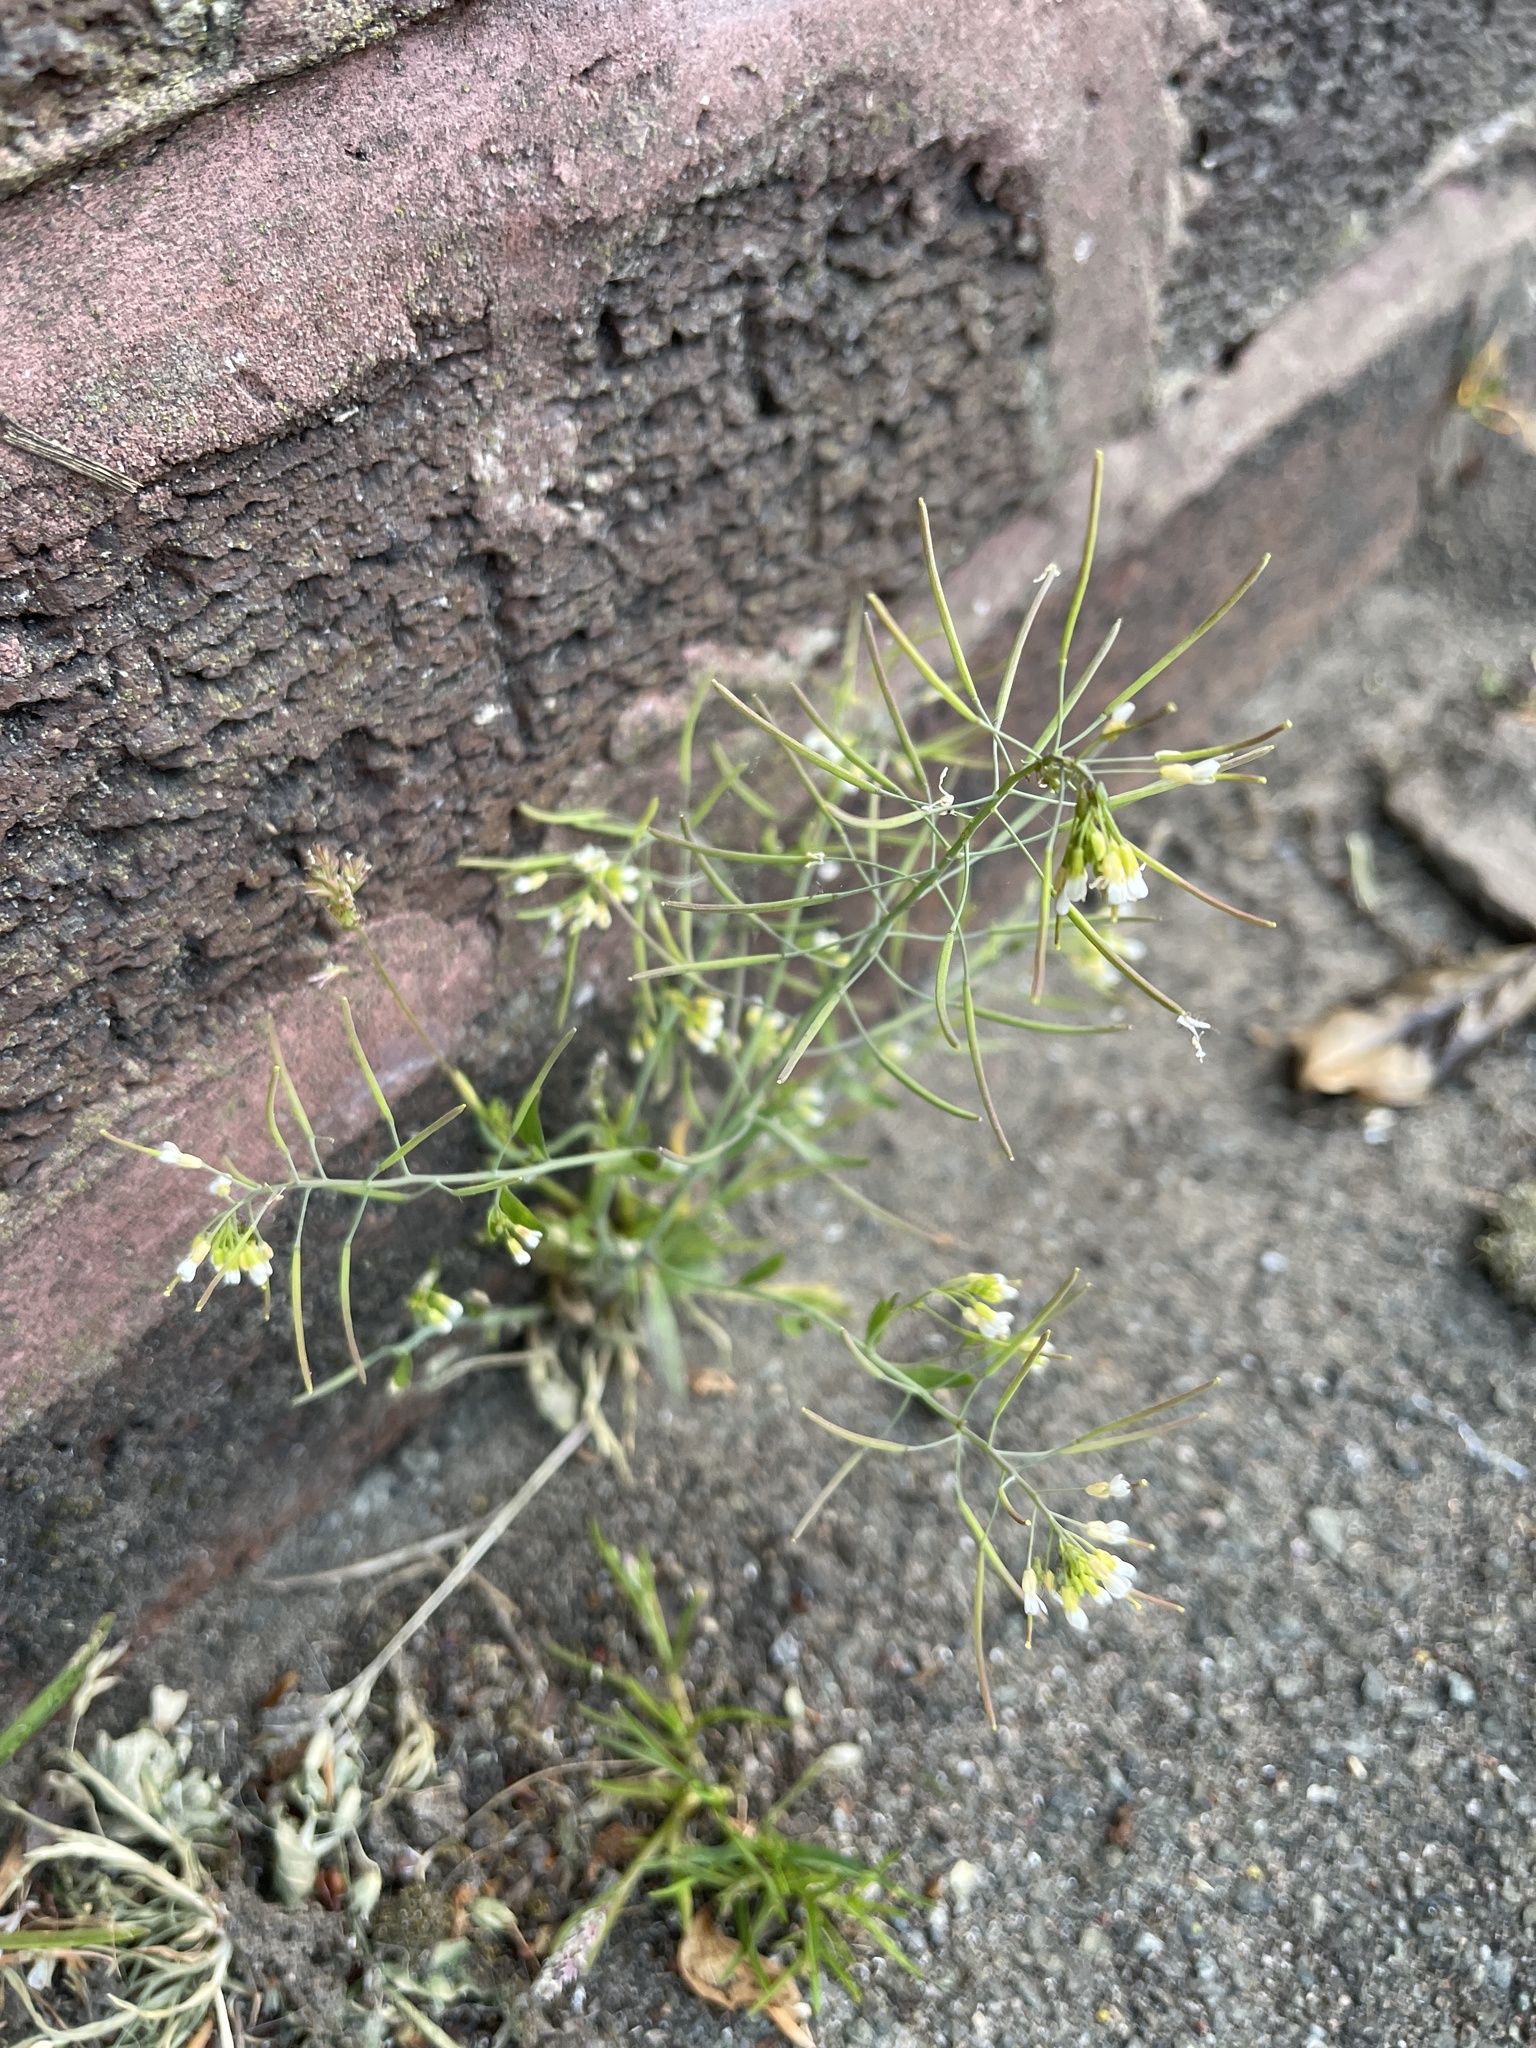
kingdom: Plantae
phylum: Tracheophyta
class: Magnoliopsida
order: Brassicales
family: Brassicaceae
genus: Arabidopsis
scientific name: Arabidopsis thaliana
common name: Thale cress
